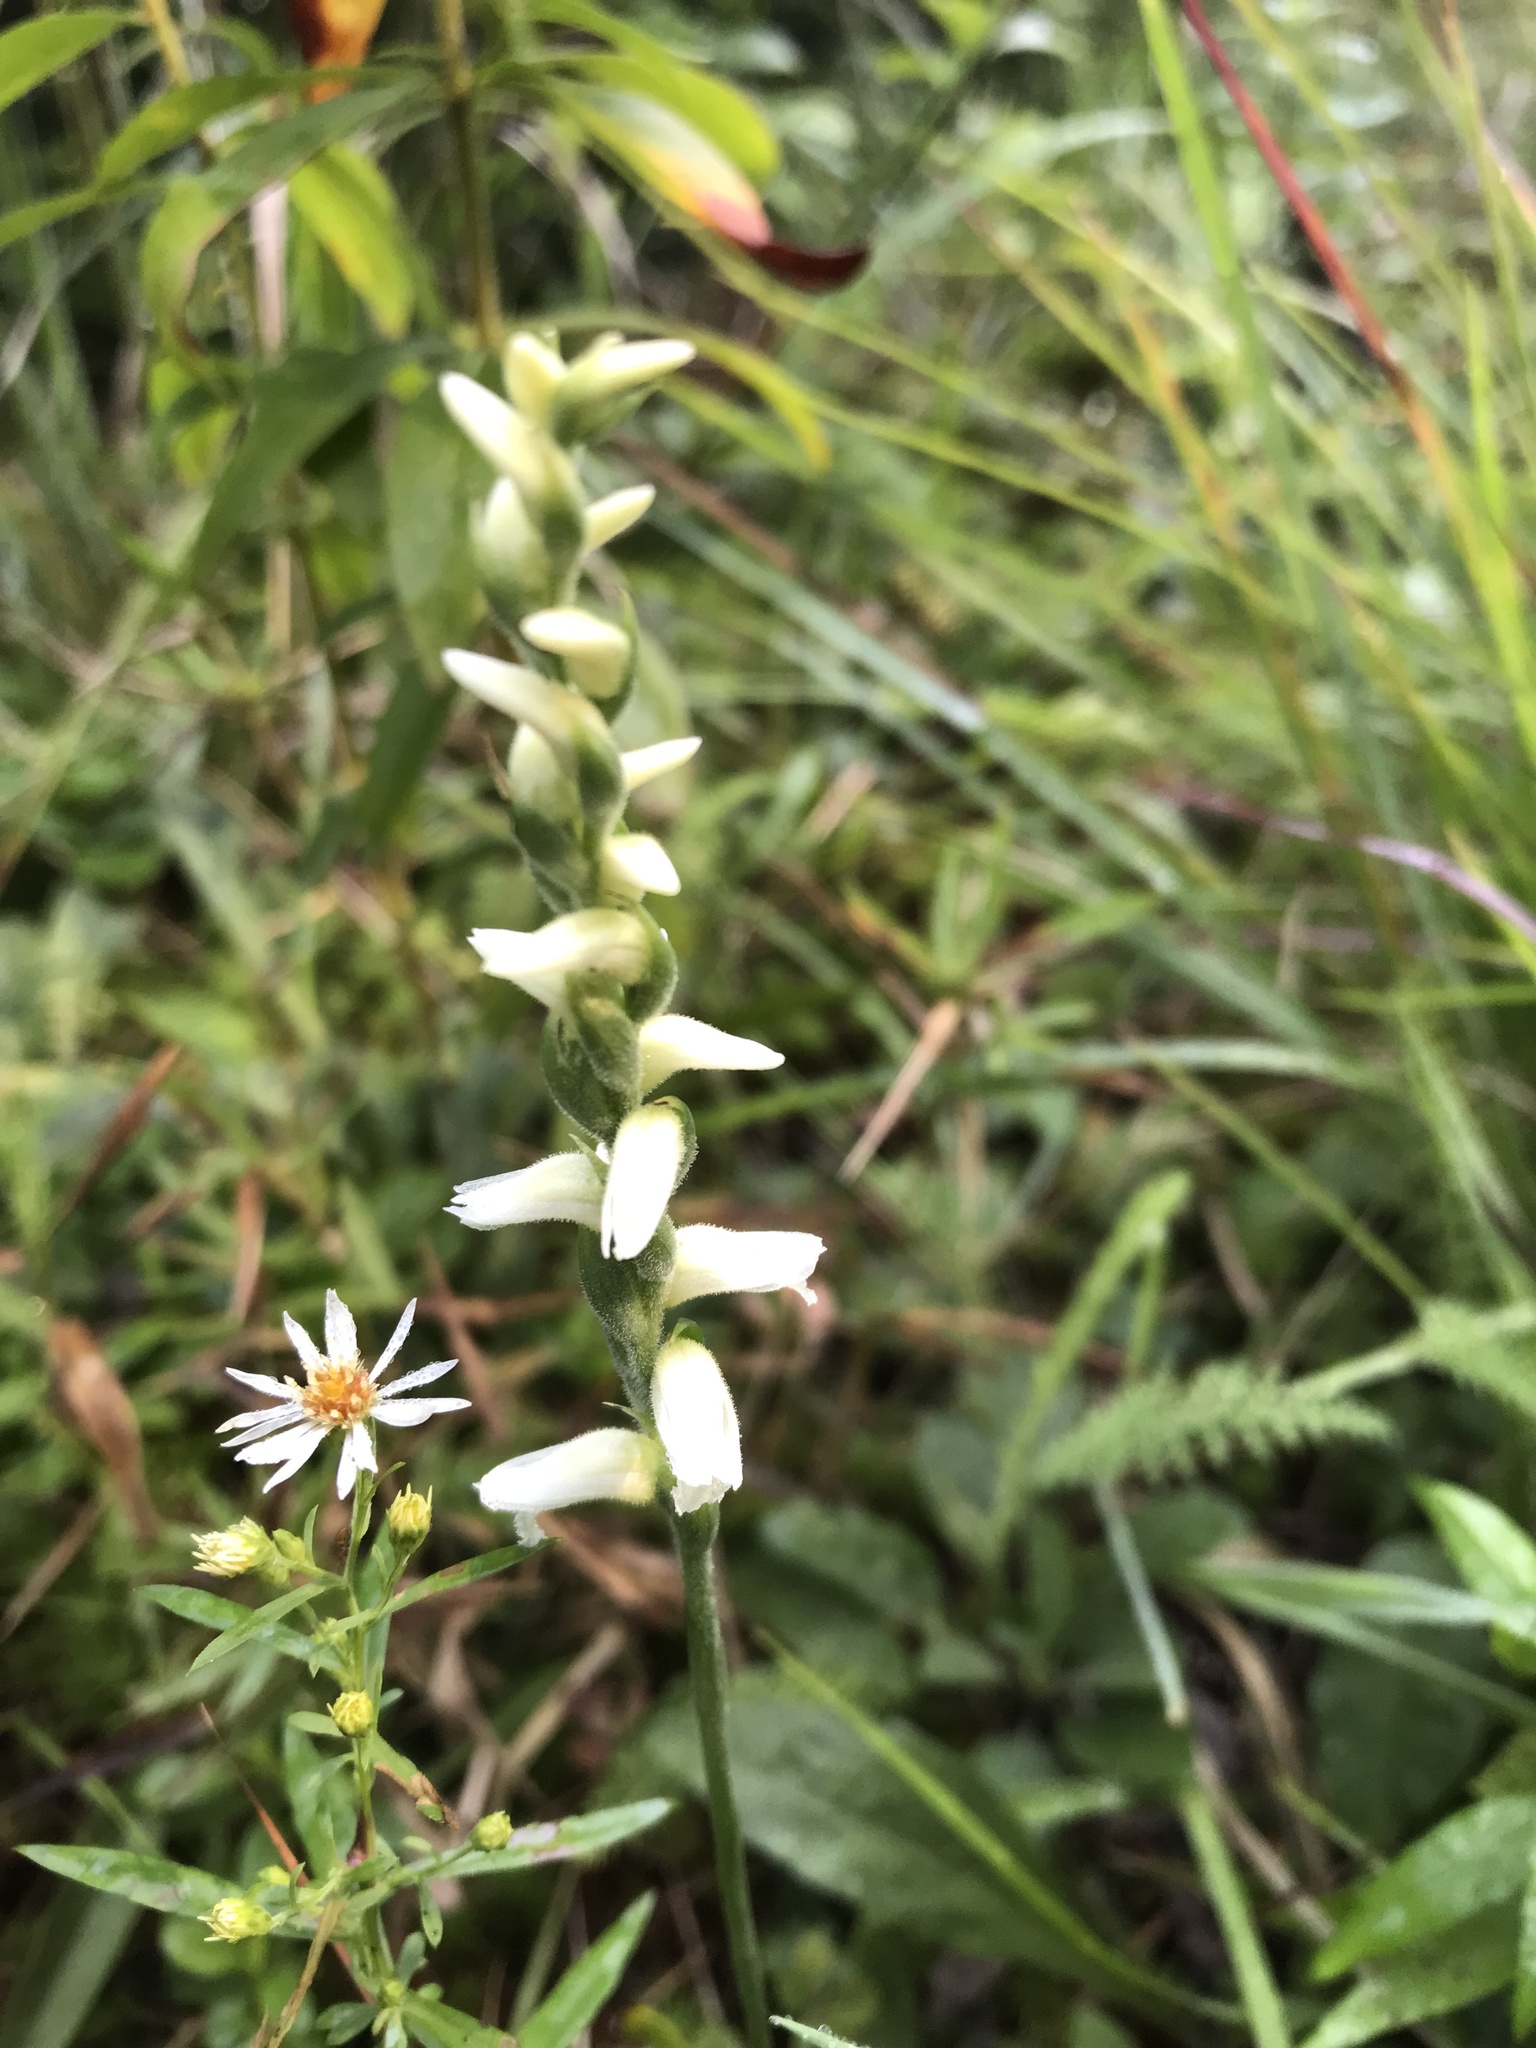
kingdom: Plantae
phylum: Tracheophyta
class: Liliopsida
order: Asparagales
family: Orchidaceae
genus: Spiranthes
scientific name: Spiranthes cernua
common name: Dropping ladies'-tresses
